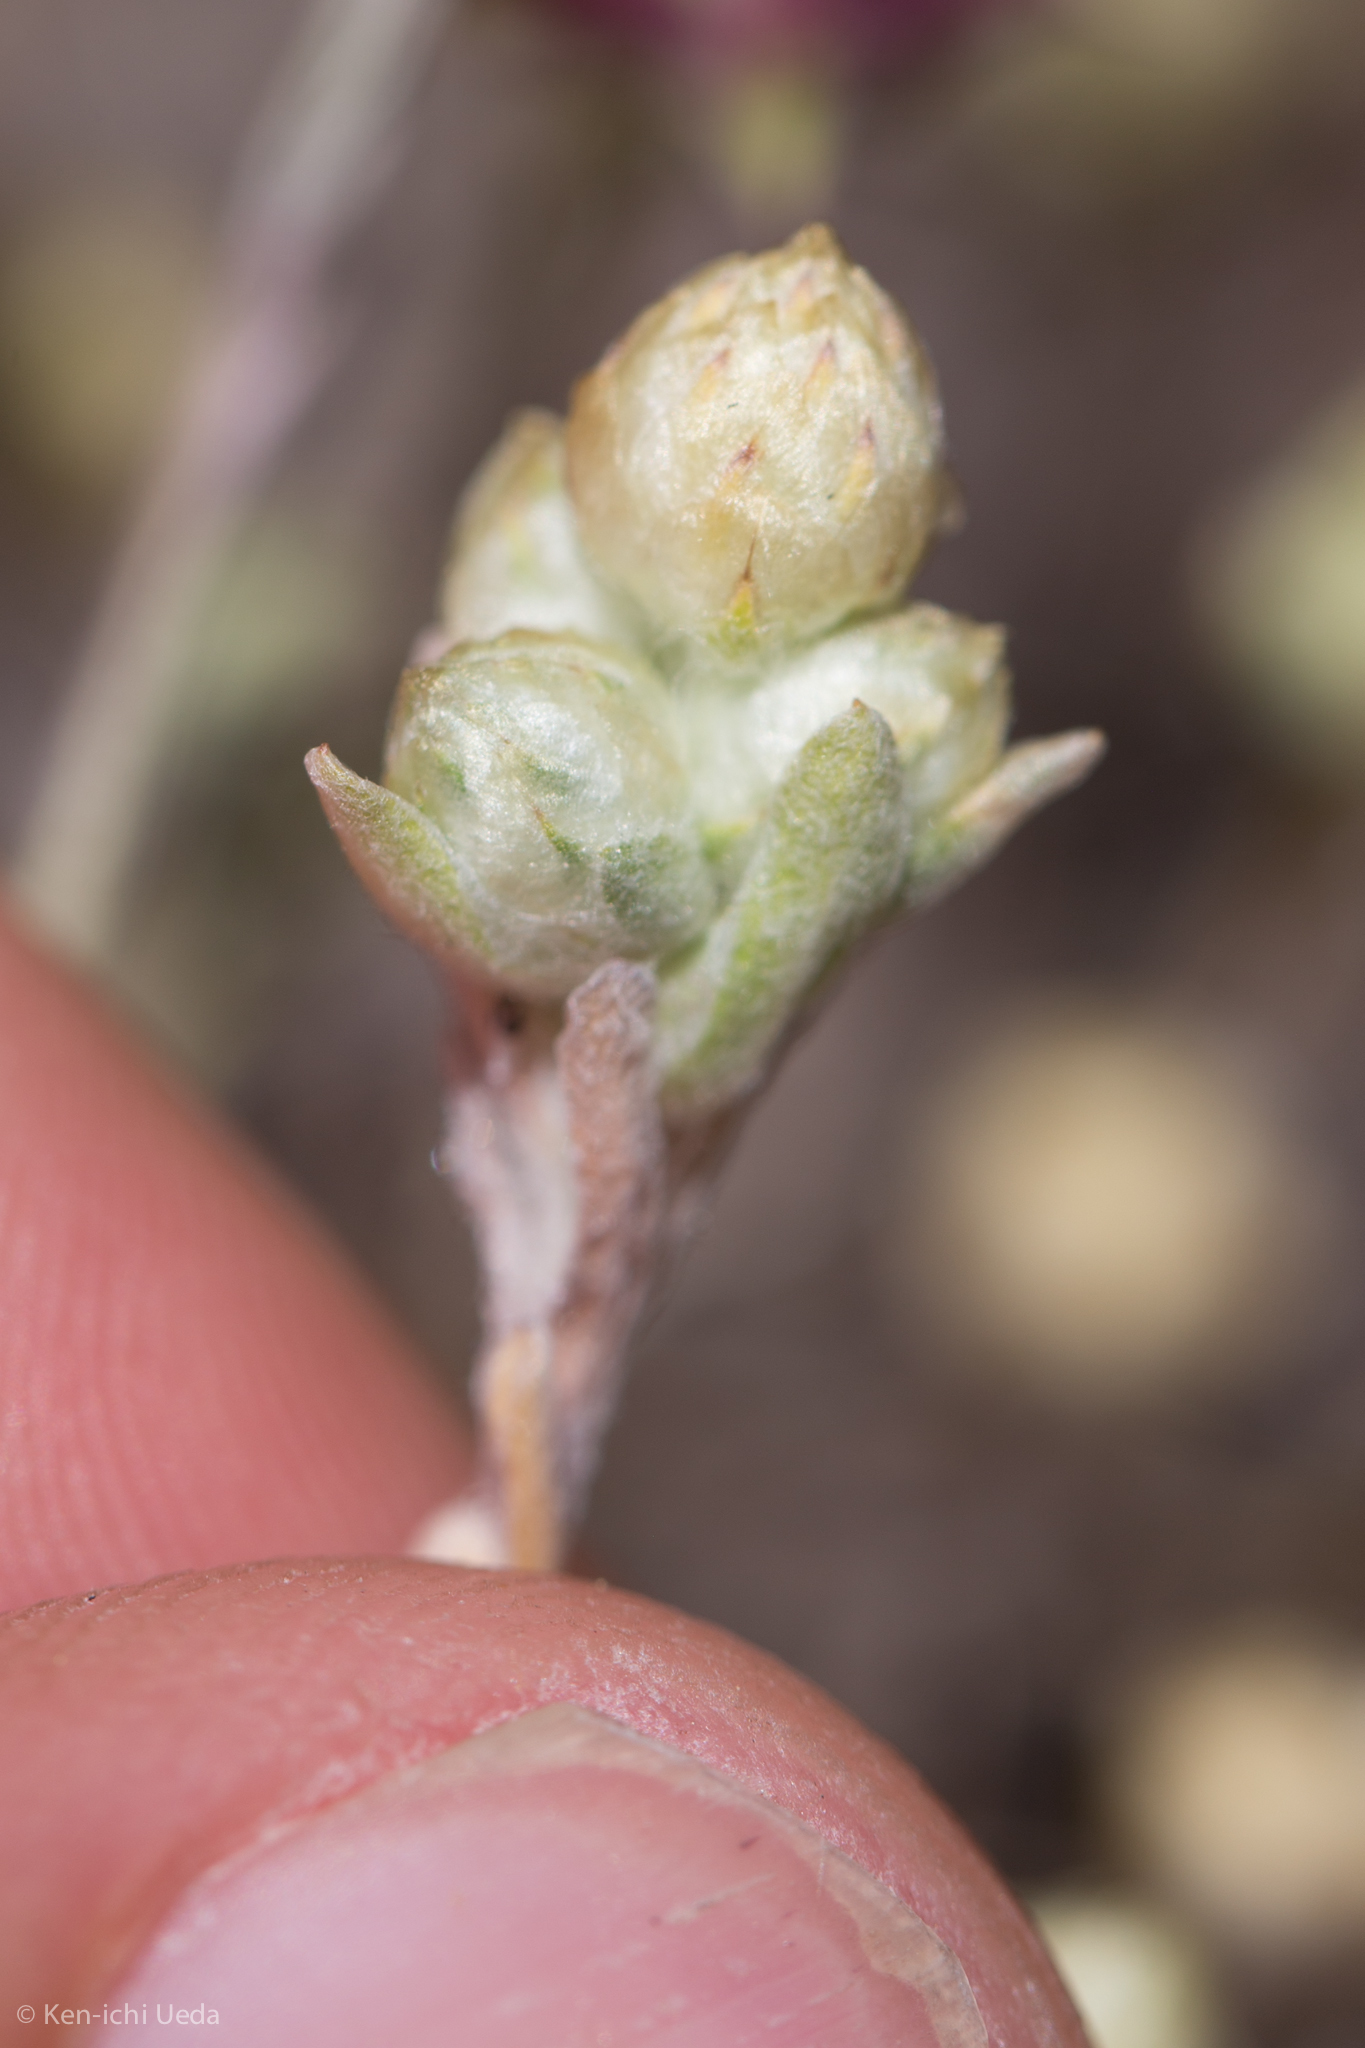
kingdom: Plantae
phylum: Tracheophyta
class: Magnoliopsida
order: Asterales
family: Asteraceae
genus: Stylocline
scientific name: Stylocline gnaphaloides
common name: Everlasting nest-straw
